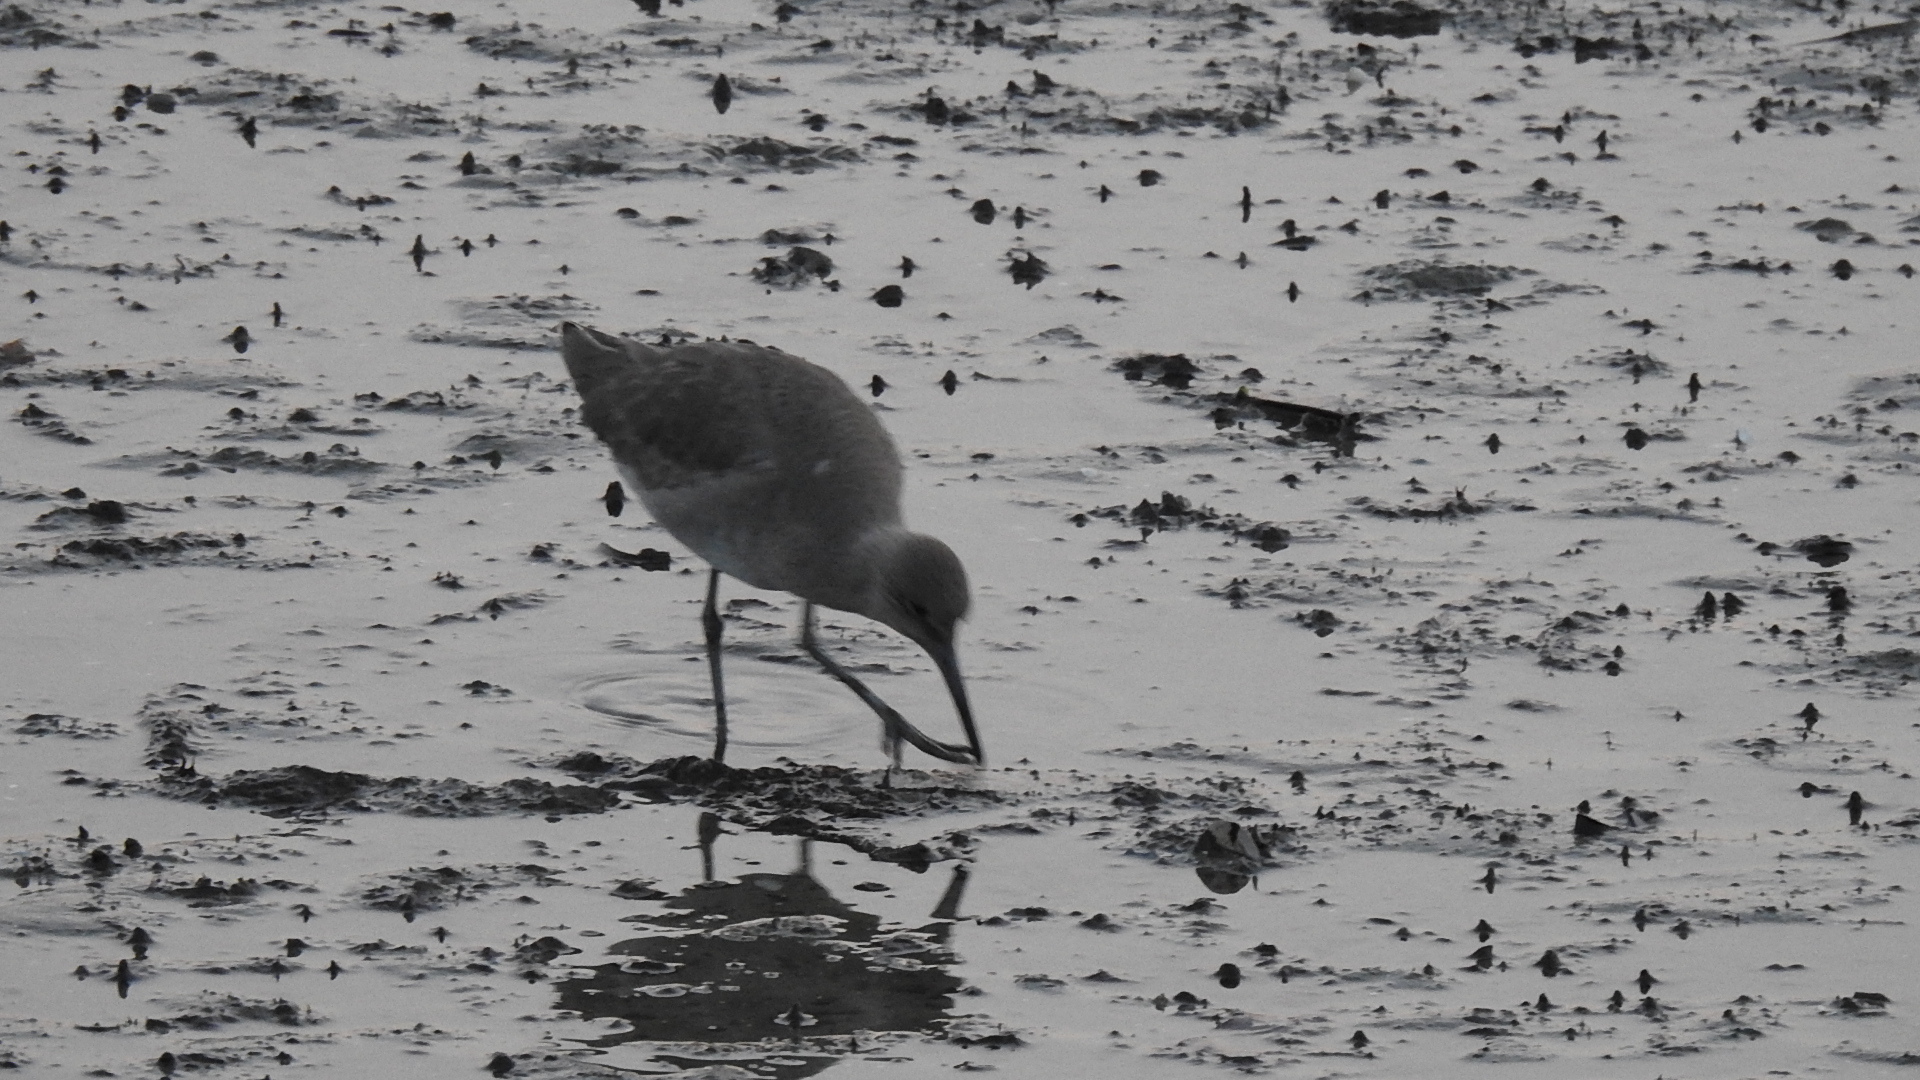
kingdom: Animalia
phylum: Chordata
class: Aves
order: Charadriiformes
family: Scolopacidae
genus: Tringa
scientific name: Tringa semipalmata
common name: Willet
